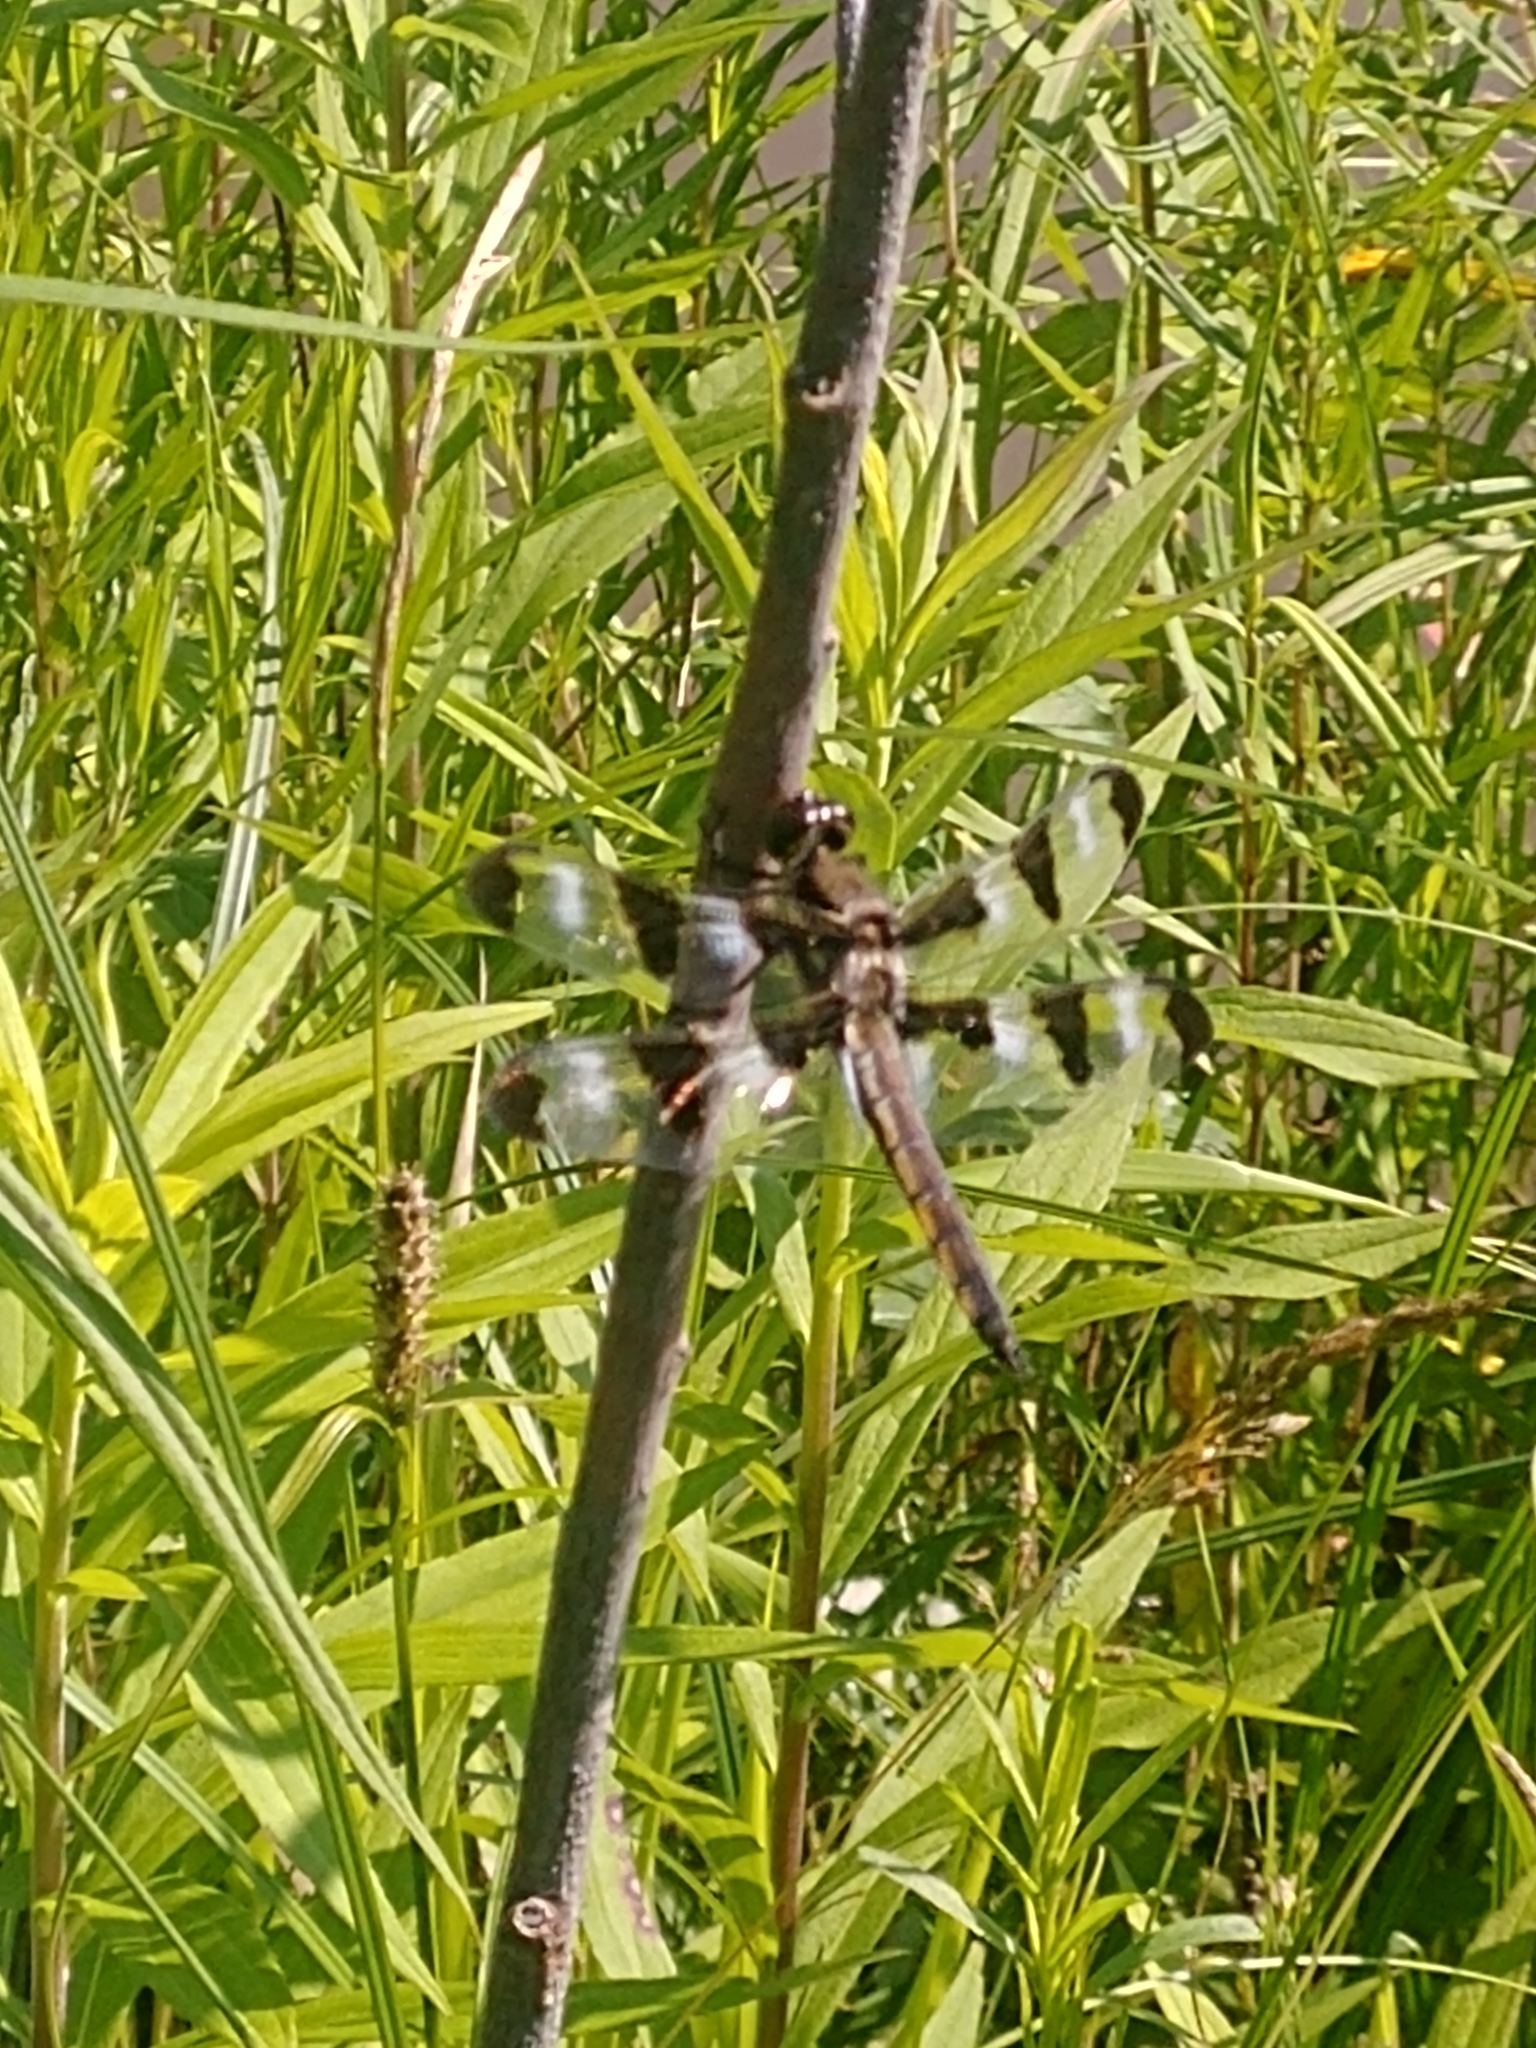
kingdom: Animalia
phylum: Arthropoda
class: Insecta
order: Odonata
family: Libellulidae
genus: Libellula
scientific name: Libellula pulchella
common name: Twelve-spotted skimmer
